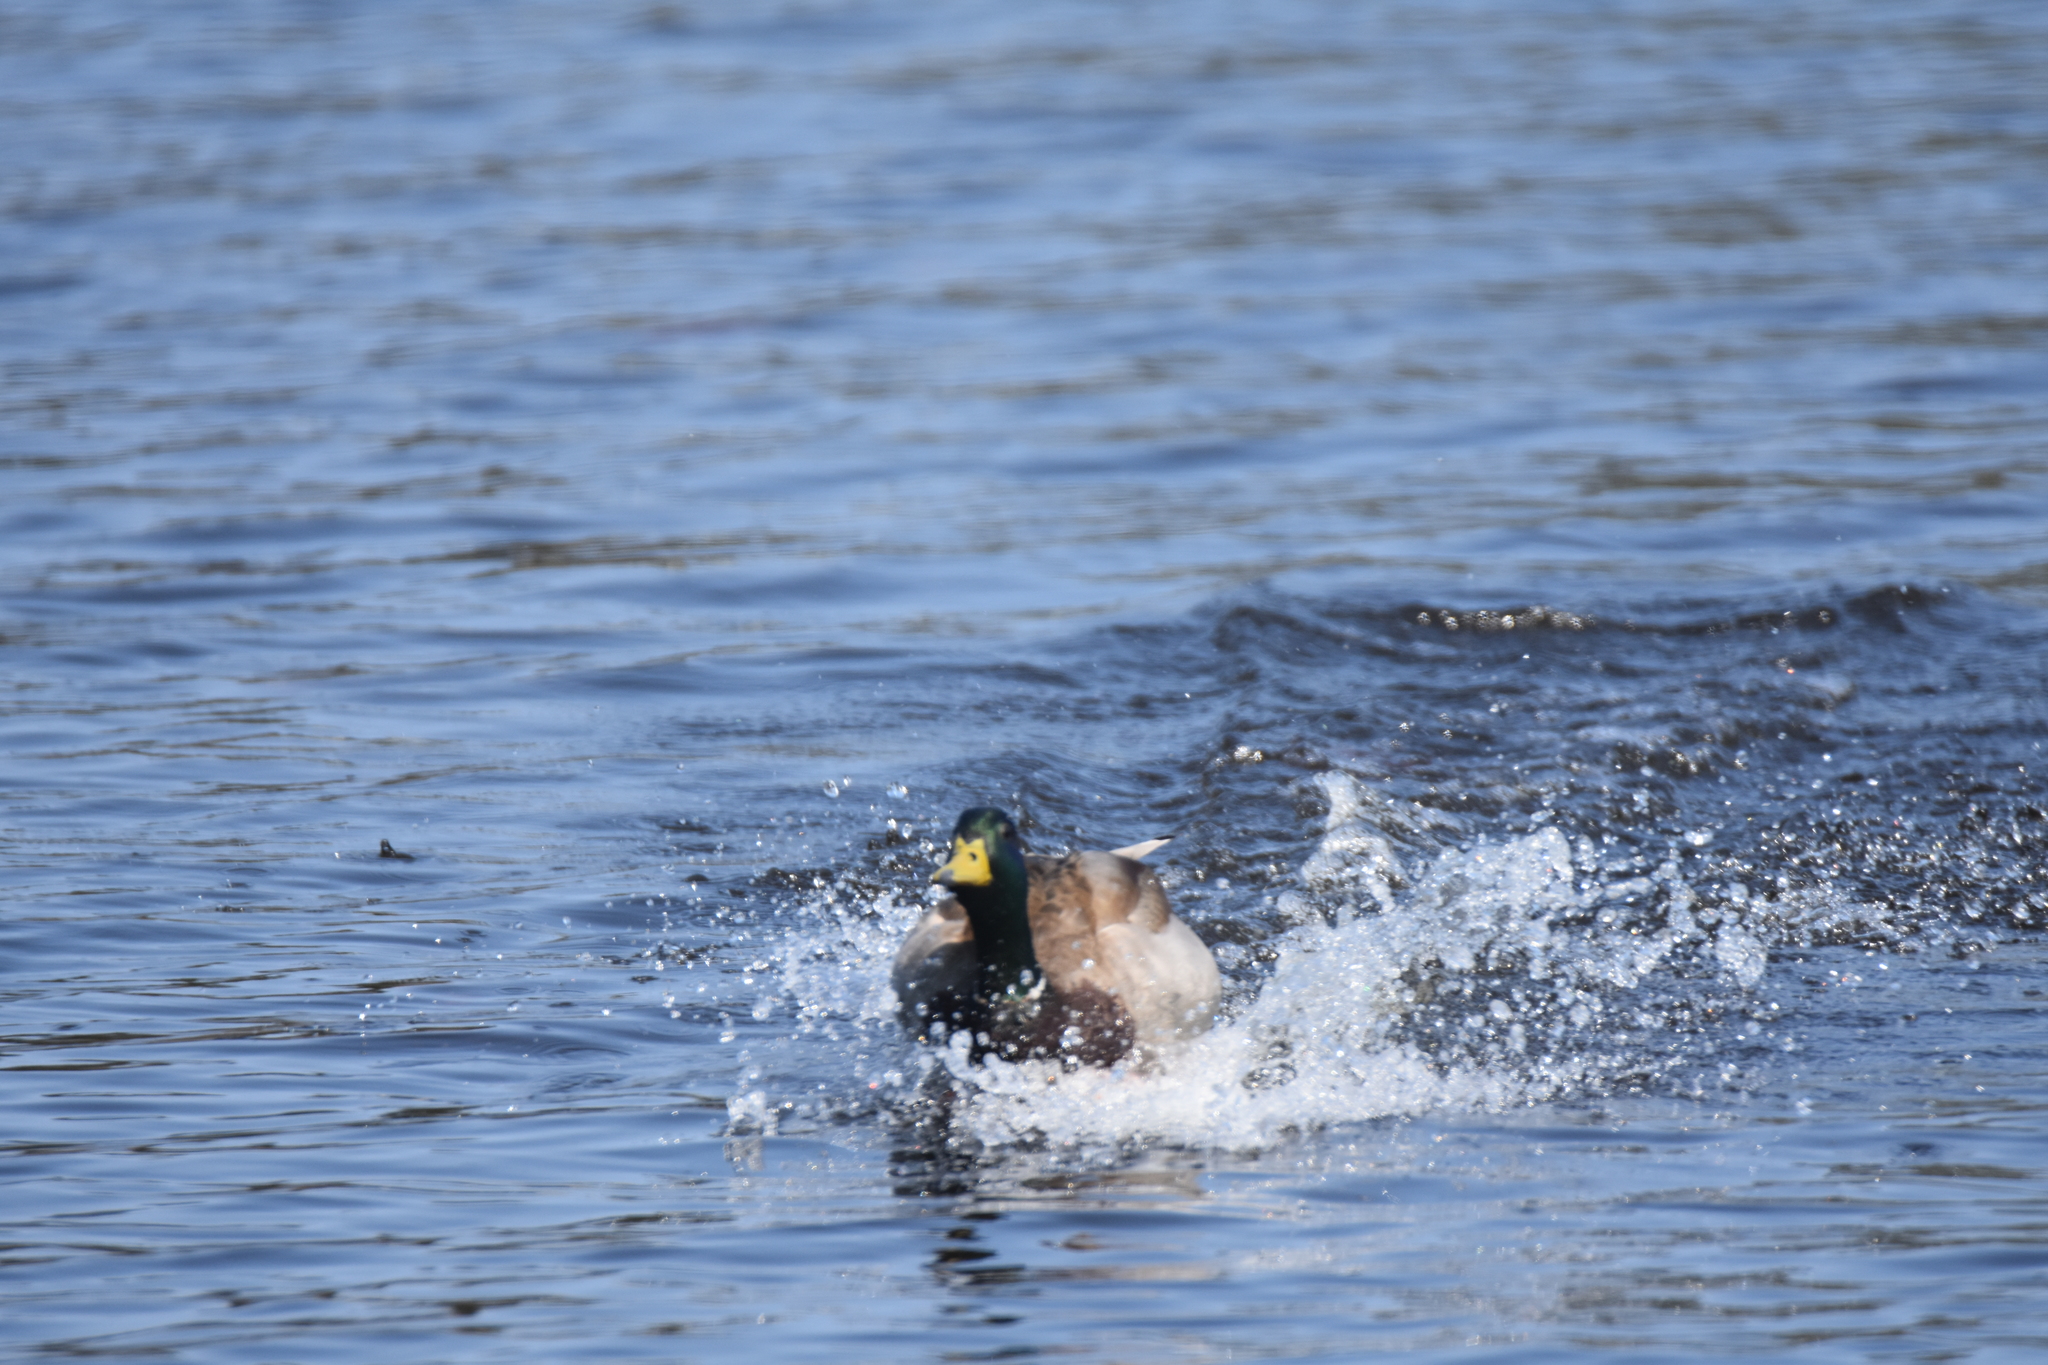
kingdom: Animalia
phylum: Chordata
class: Aves
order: Anseriformes
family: Anatidae
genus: Anas
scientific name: Anas platyrhynchos
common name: Mallard
